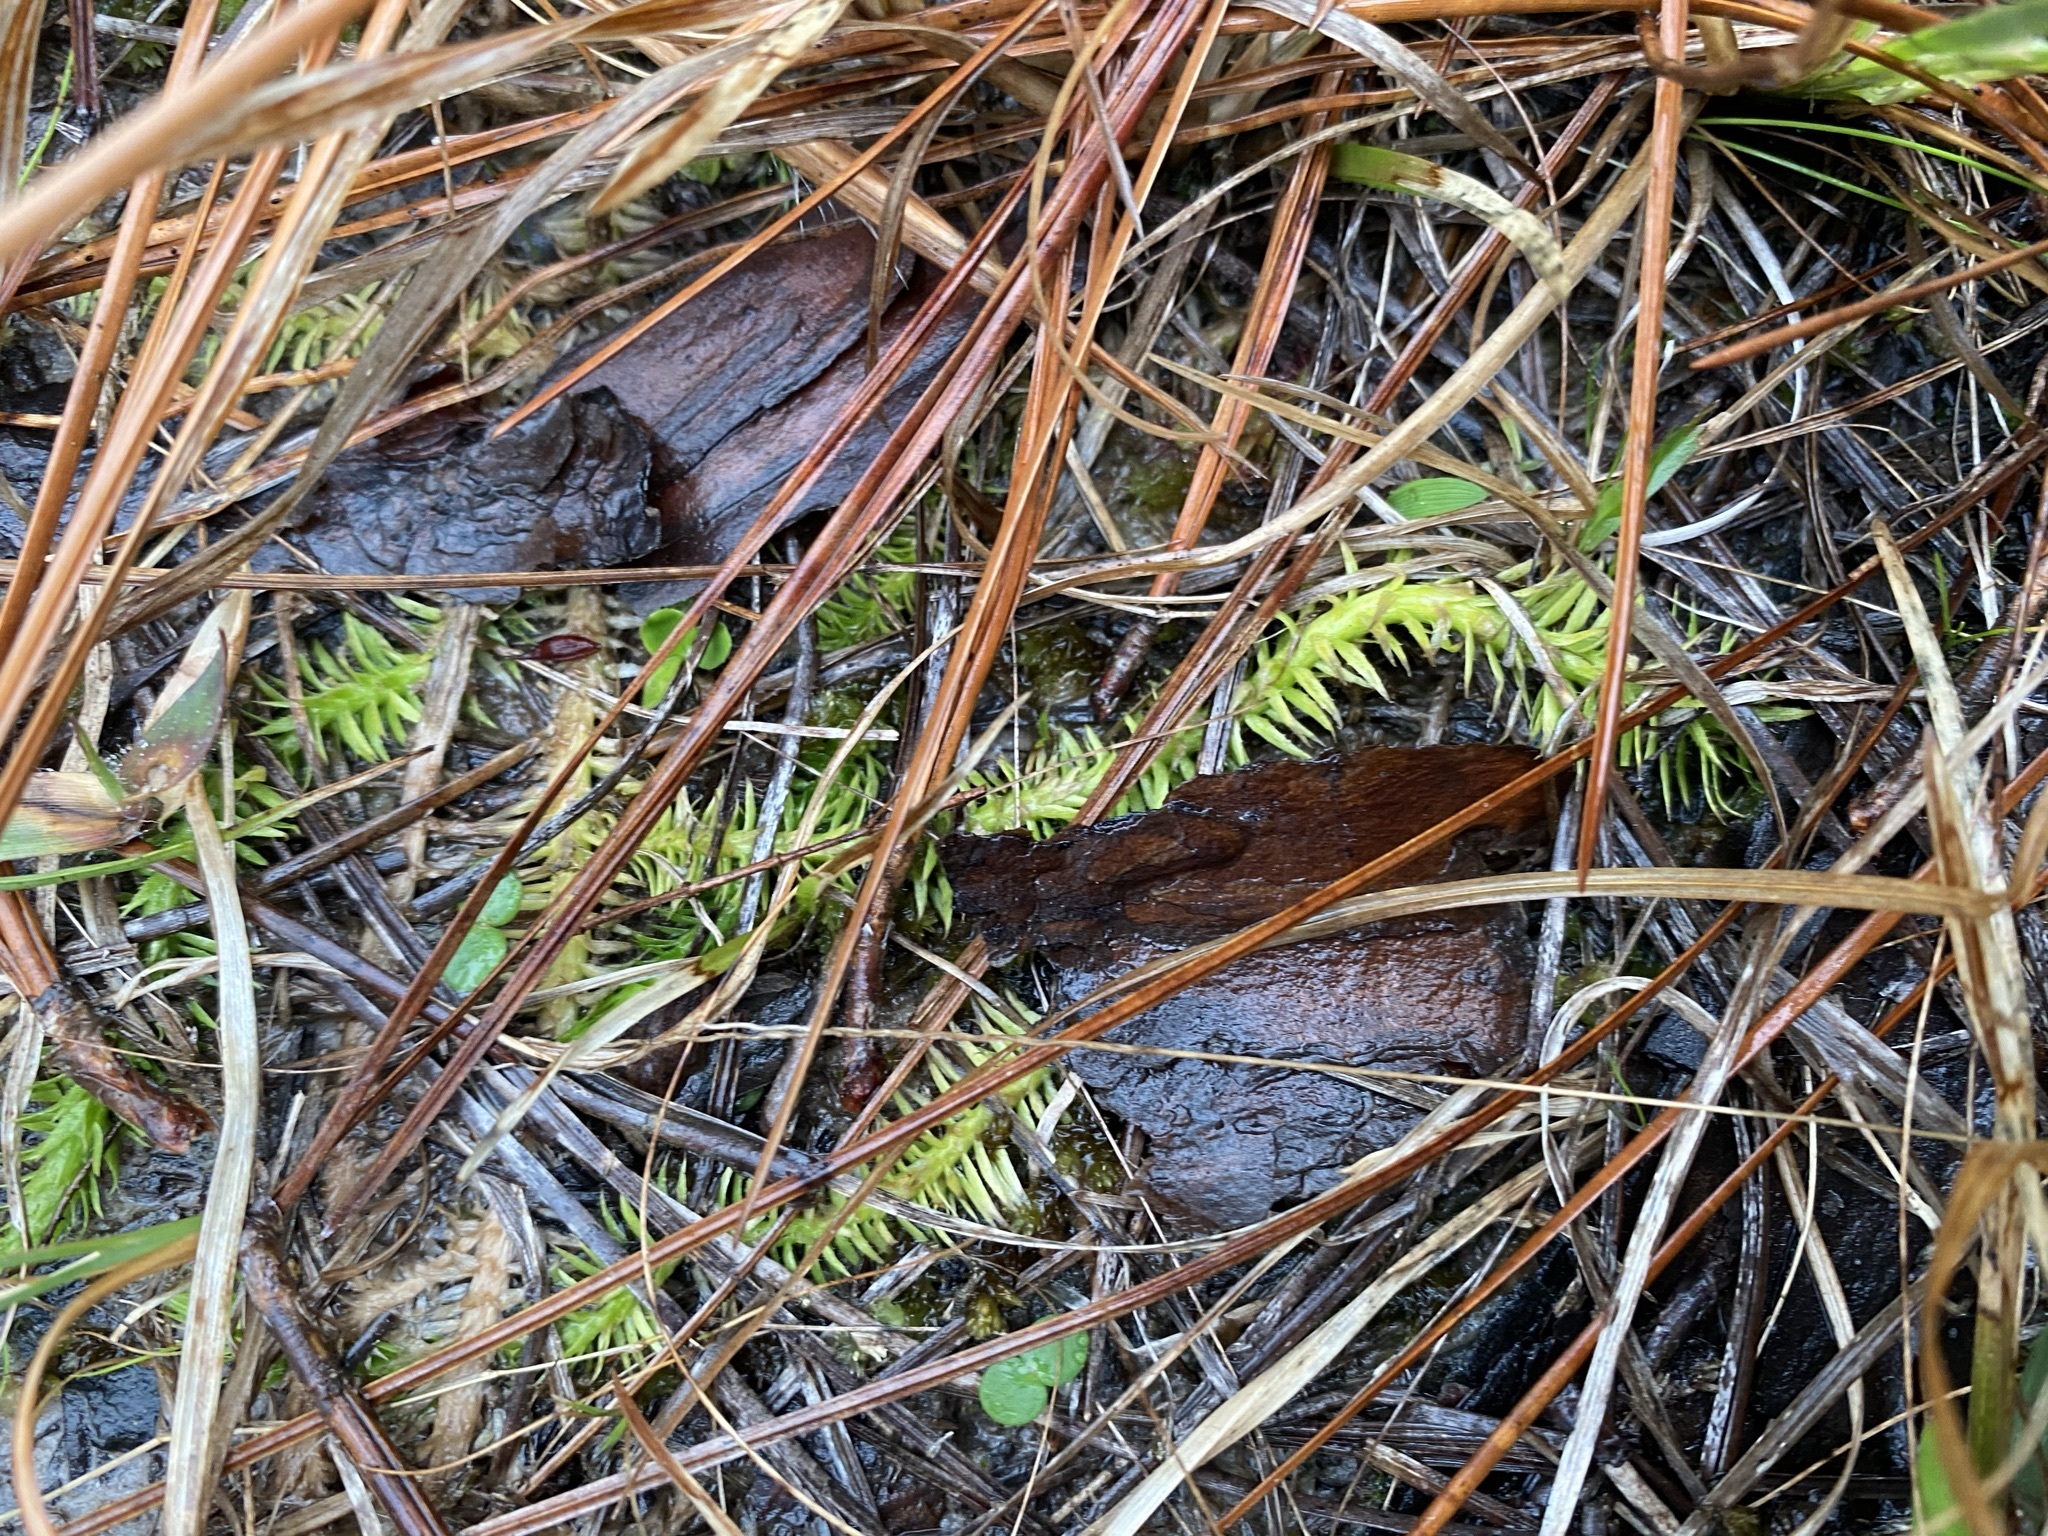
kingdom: Plantae
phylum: Tracheophyta
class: Lycopodiopsida
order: Lycopodiales
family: Lycopodiaceae
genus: Lycopodiella
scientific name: Lycopodiella appressa
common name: Appressed bog clubmoss
